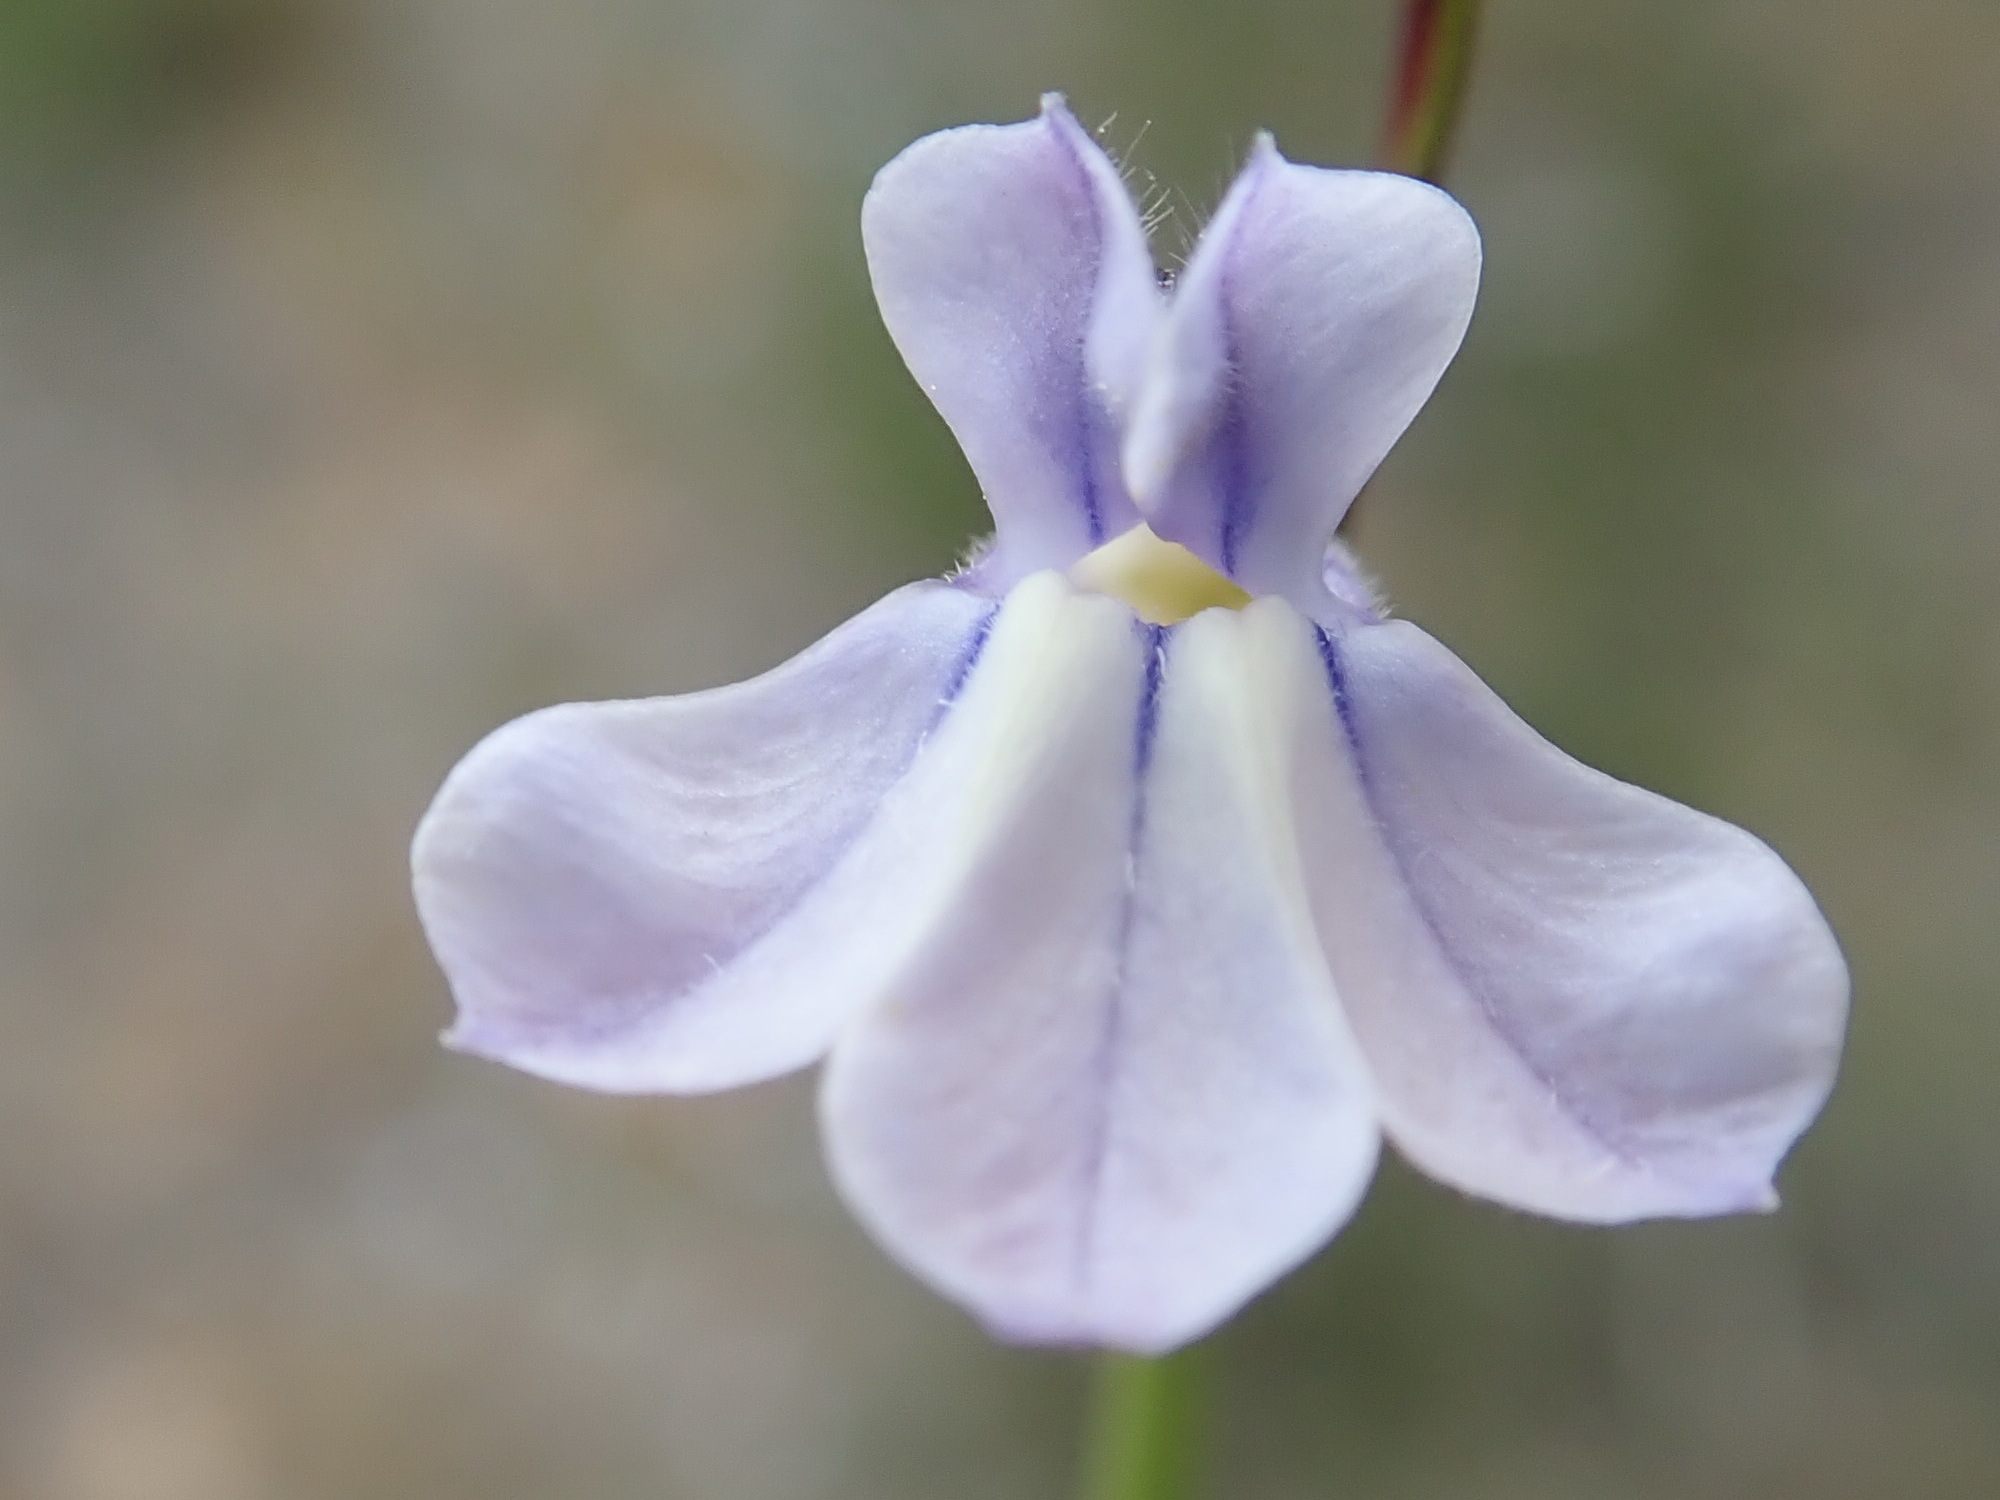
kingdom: Plantae
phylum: Tracheophyta
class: Magnoliopsida
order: Asterales
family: Campanulaceae
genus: Lobelia
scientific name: Lobelia capillifolia
